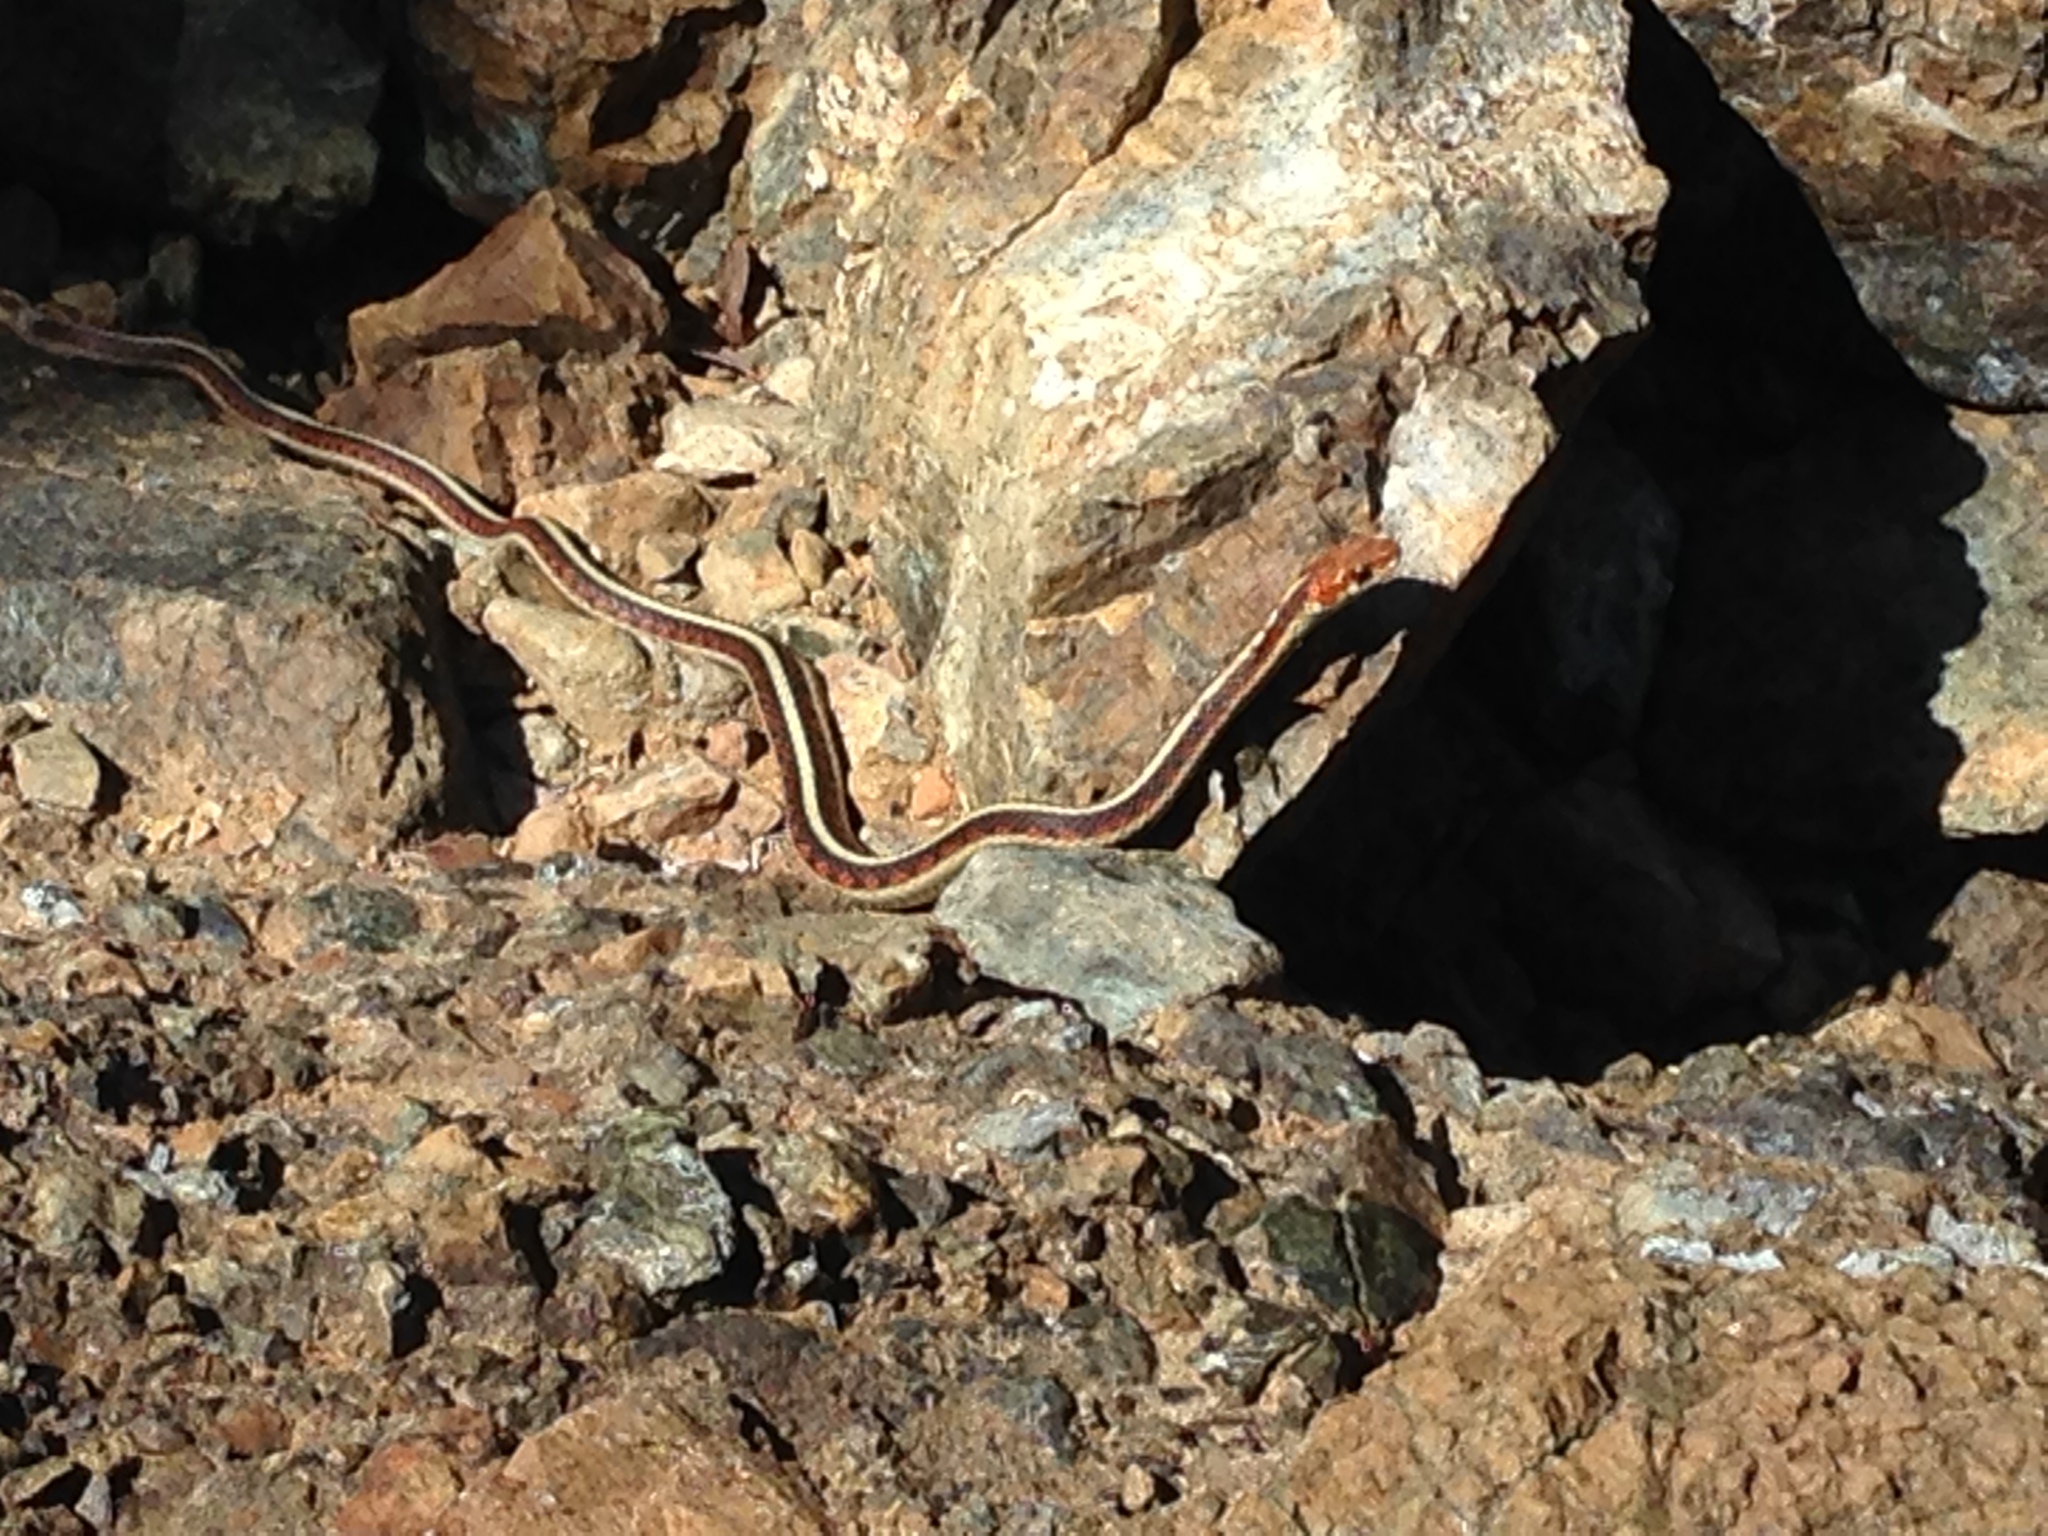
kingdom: Animalia
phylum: Chordata
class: Squamata
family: Colubridae
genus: Thamnophis
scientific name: Thamnophis sirtalis
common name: Common garter snake
